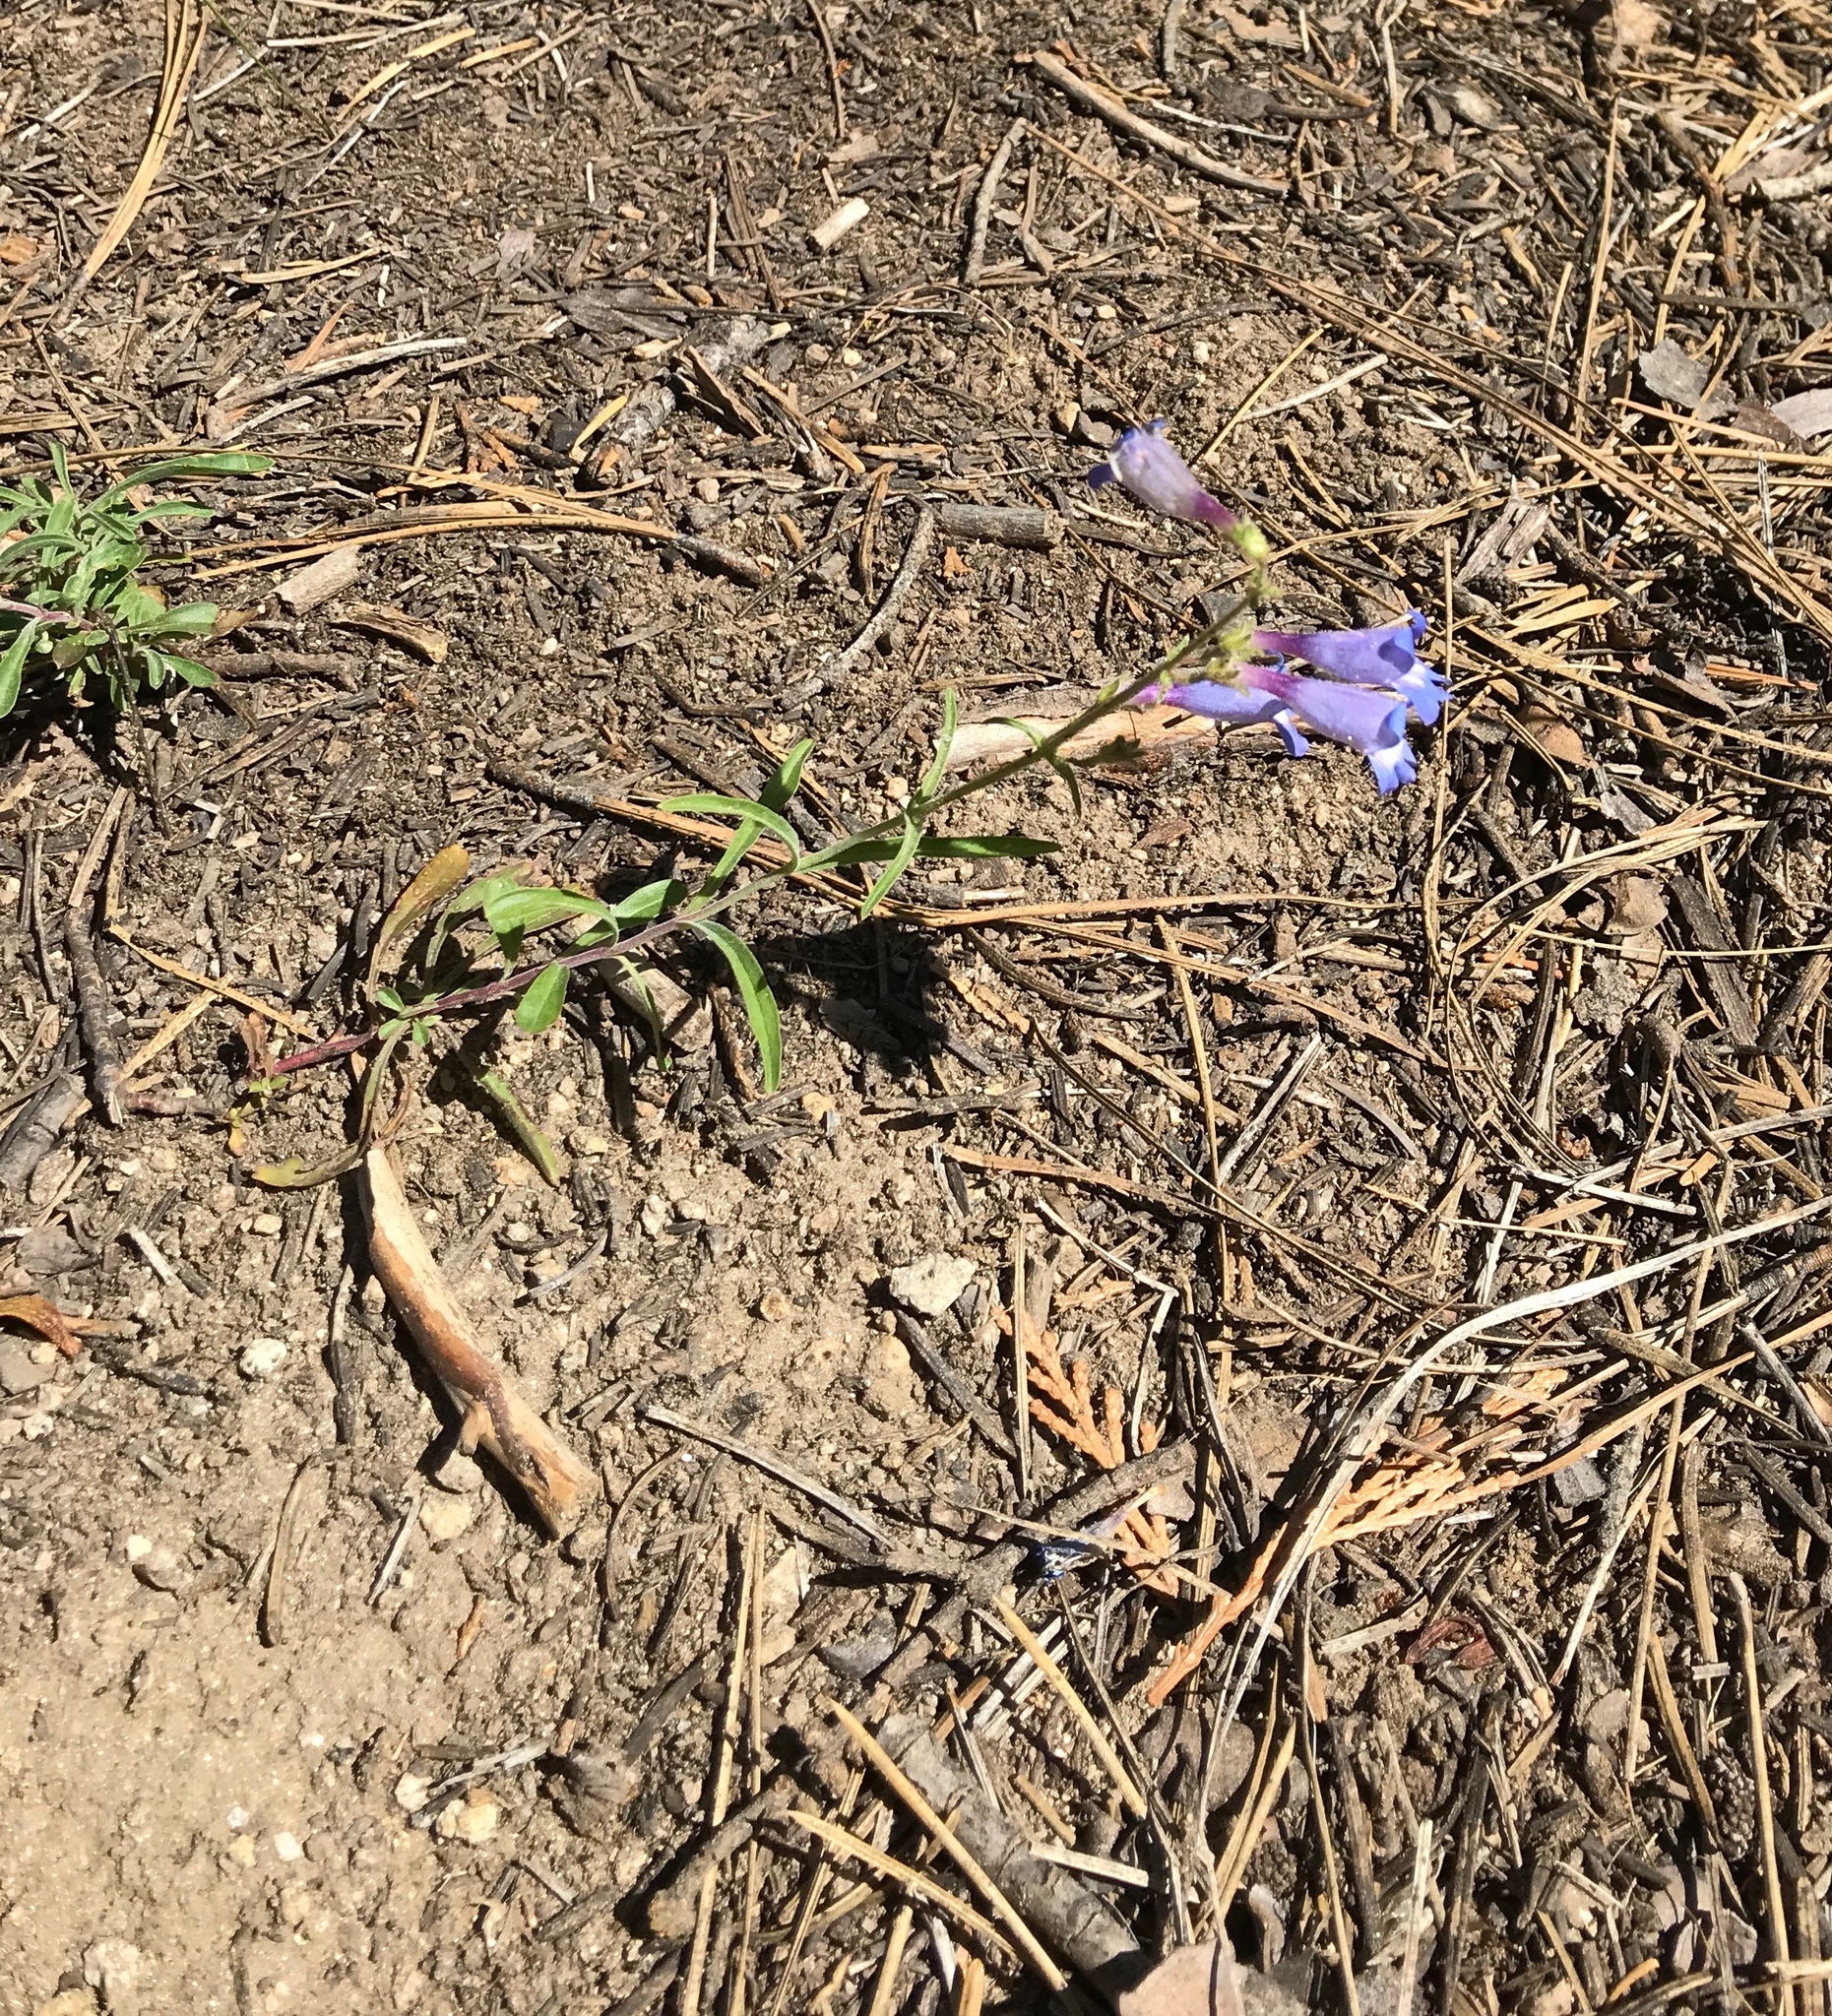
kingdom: Plantae
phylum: Tracheophyta
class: Magnoliopsida
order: Lamiales
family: Plantaginaceae
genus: Penstemon
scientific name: Penstemon laetus
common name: Gay penstemon
